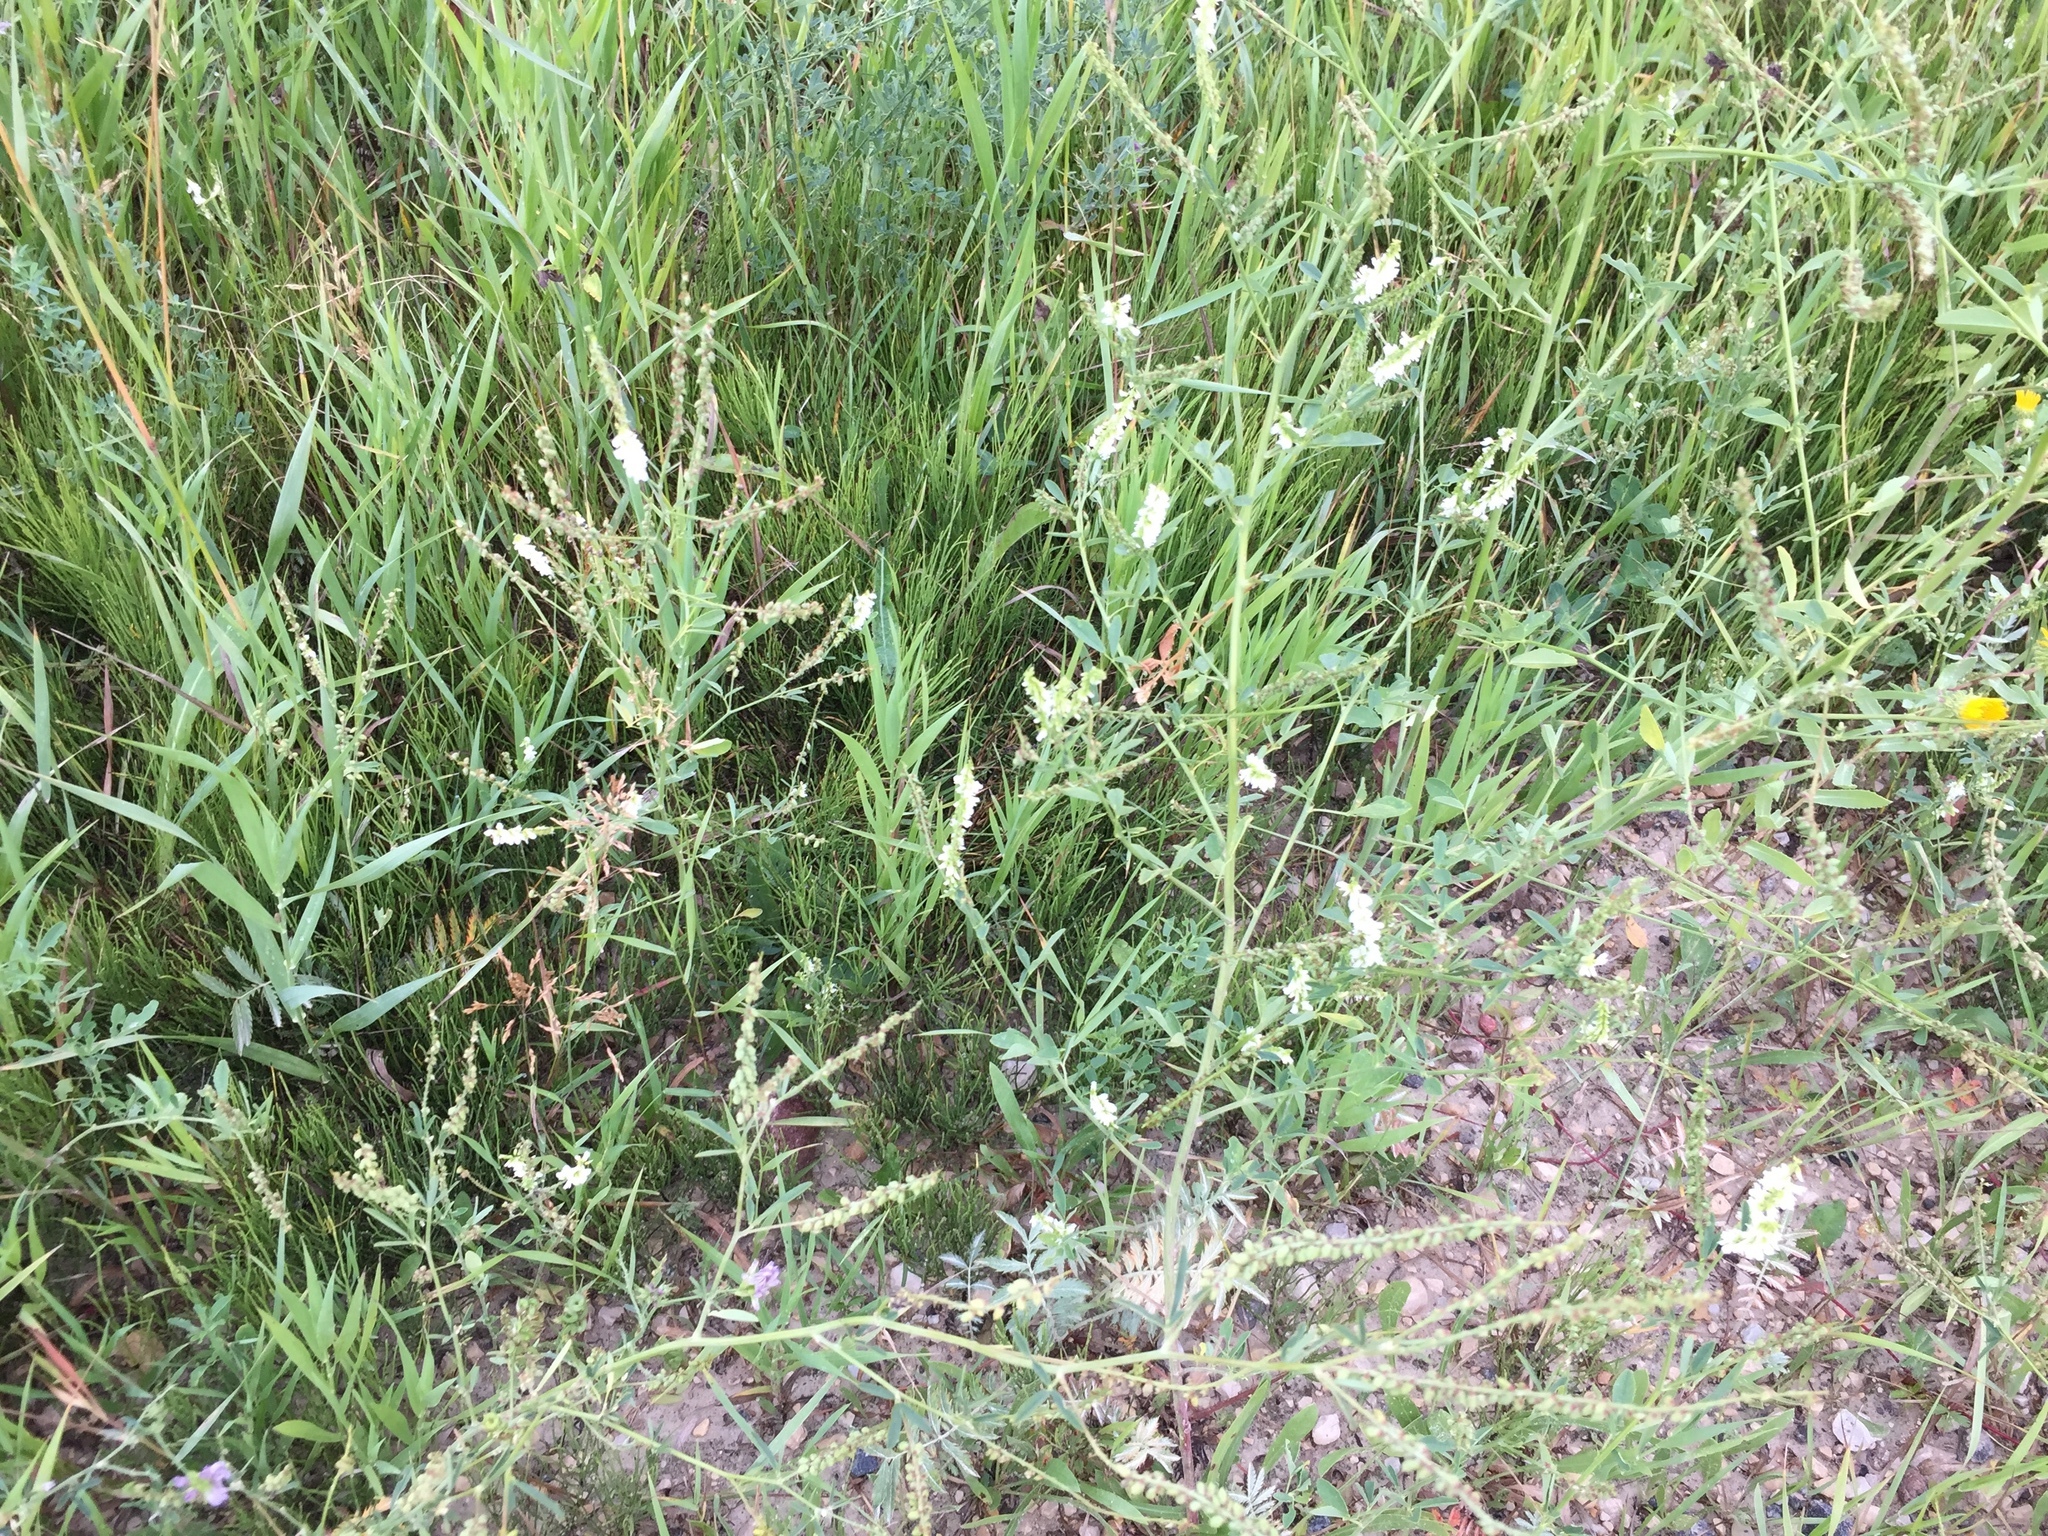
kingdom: Plantae
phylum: Tracheophyta
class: Magnoliopsida
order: Fabales
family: Fabaceae
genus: Melilotus
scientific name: Melilotus albus
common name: White melilot
